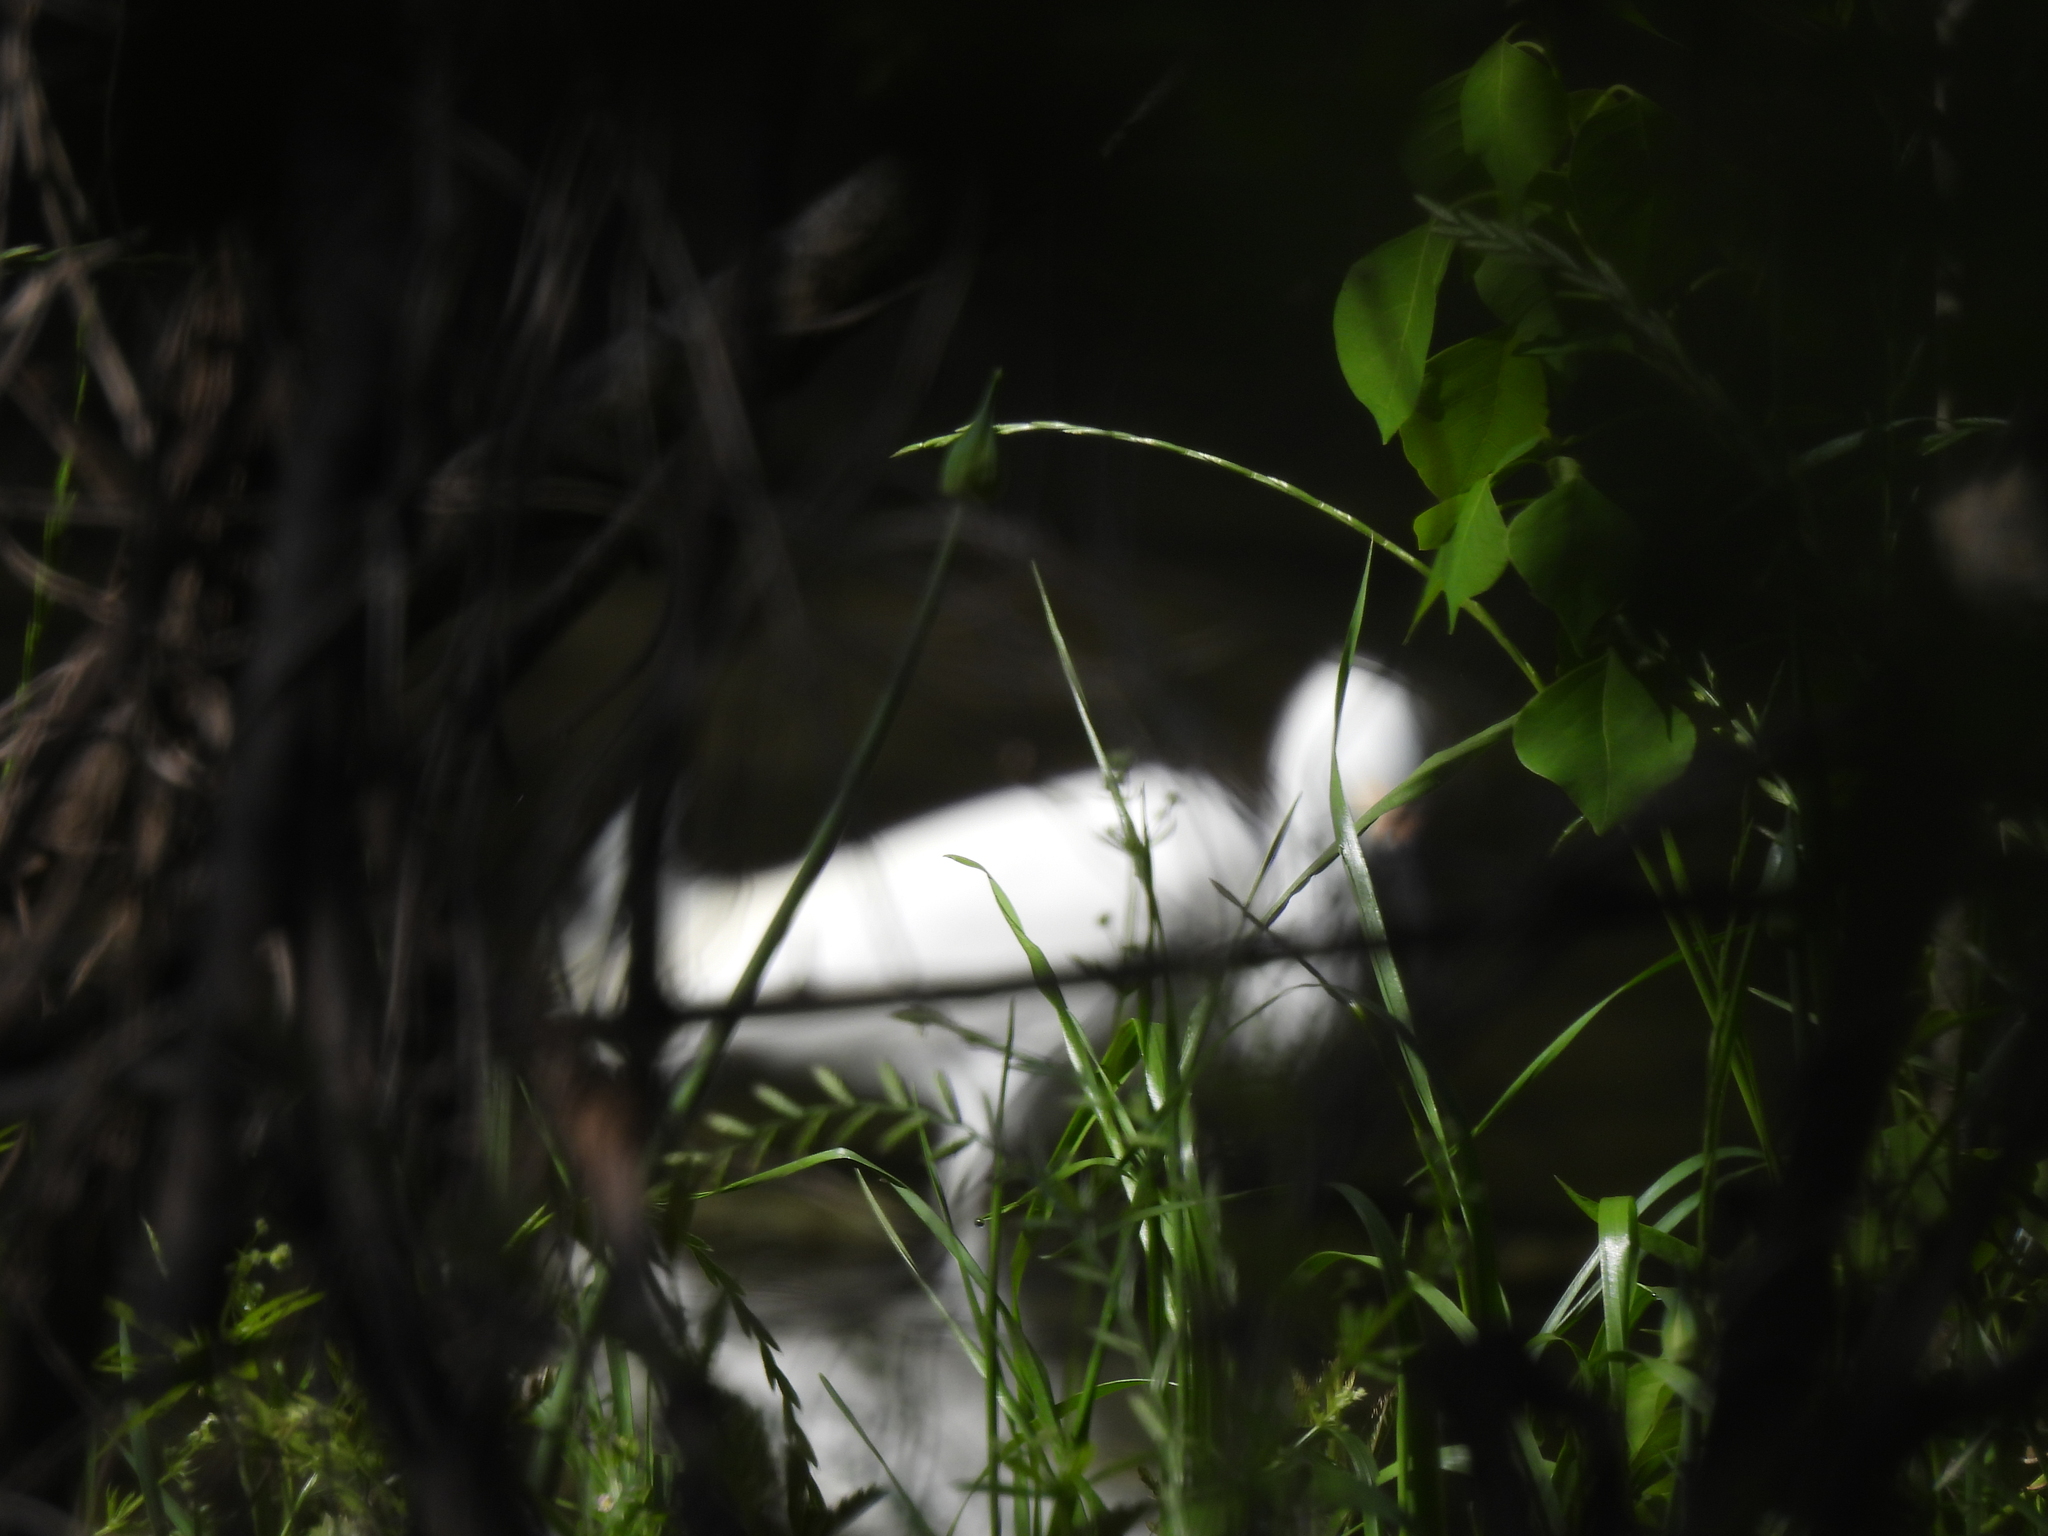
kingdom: Animalia
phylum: Chordata
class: Aves
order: Pelecaniformes
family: Ardeidae
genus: Egretta
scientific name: Egretta thula
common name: Snowy egret
